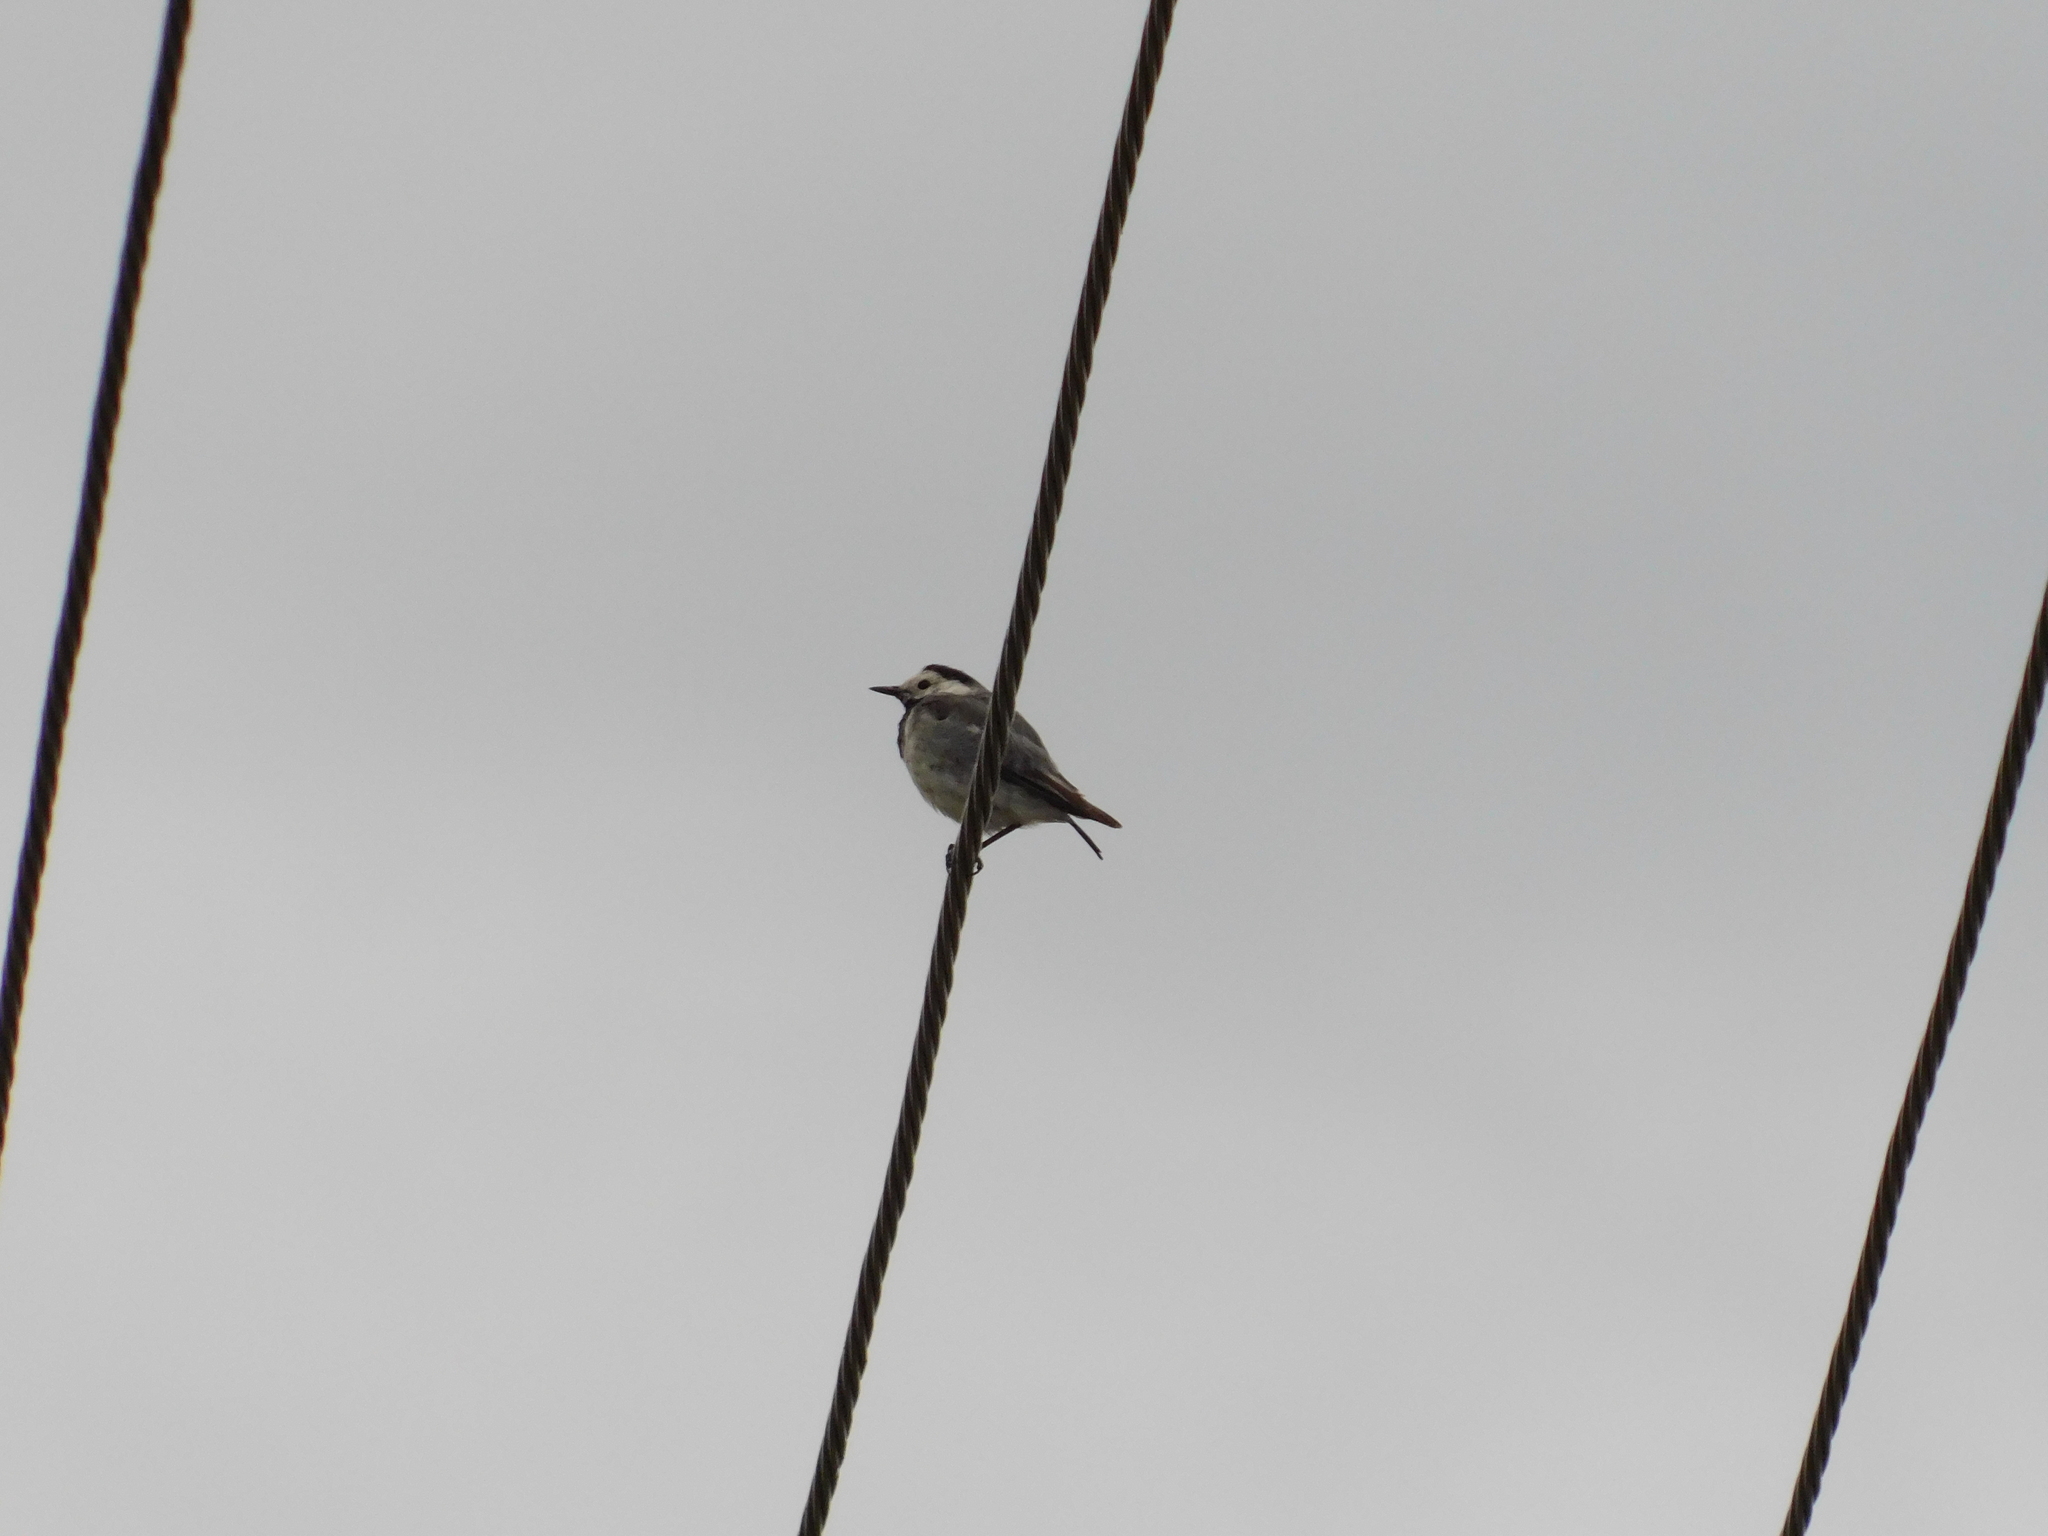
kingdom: Animalia
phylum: Chordata
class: Aves
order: Passeriformes
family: Motacillidae
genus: Motacilla
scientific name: Motacilla alba
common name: White wagtail
